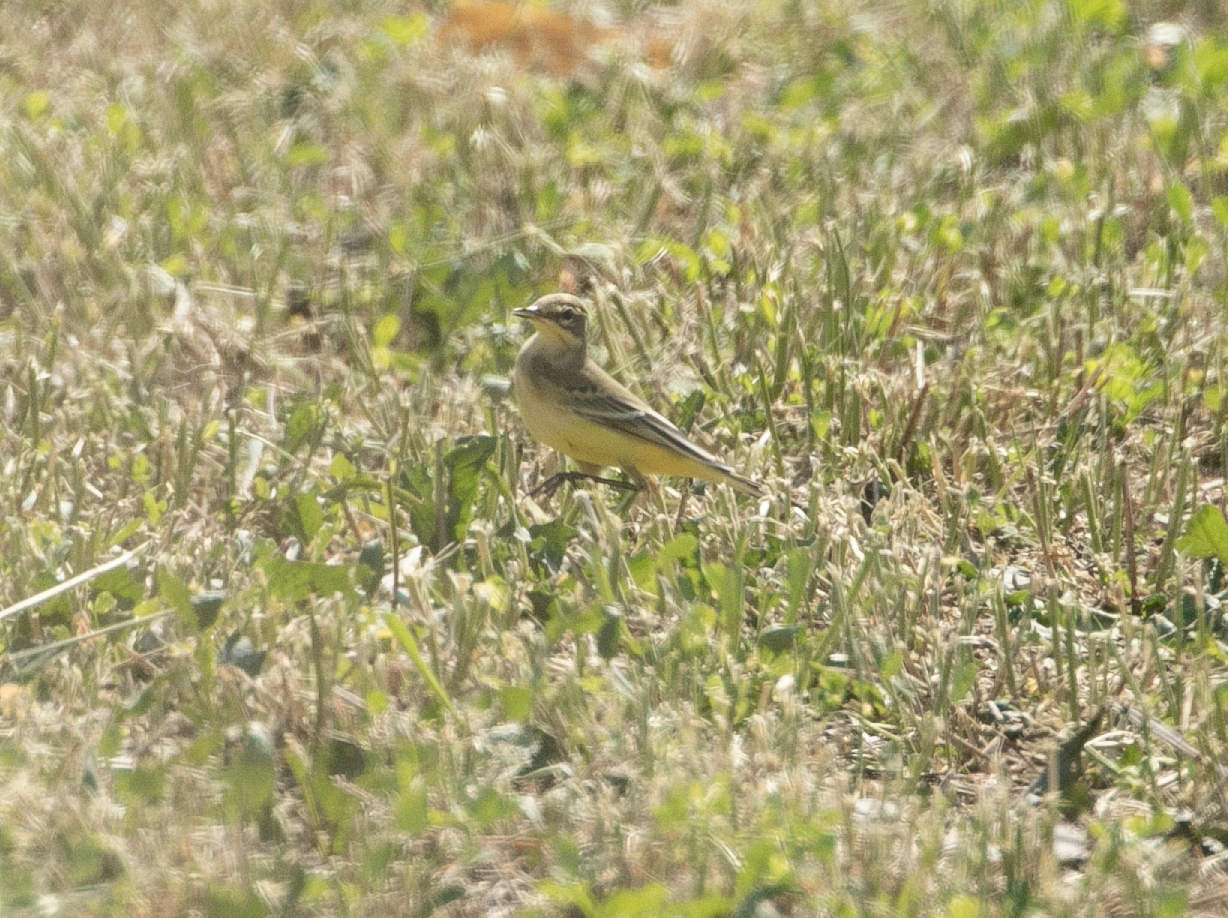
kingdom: Animalia
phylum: Chordata
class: Aves
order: Passeriformes
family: Motacillidae
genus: Motacilla
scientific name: Motacilla flava
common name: Western yellow wagtail
